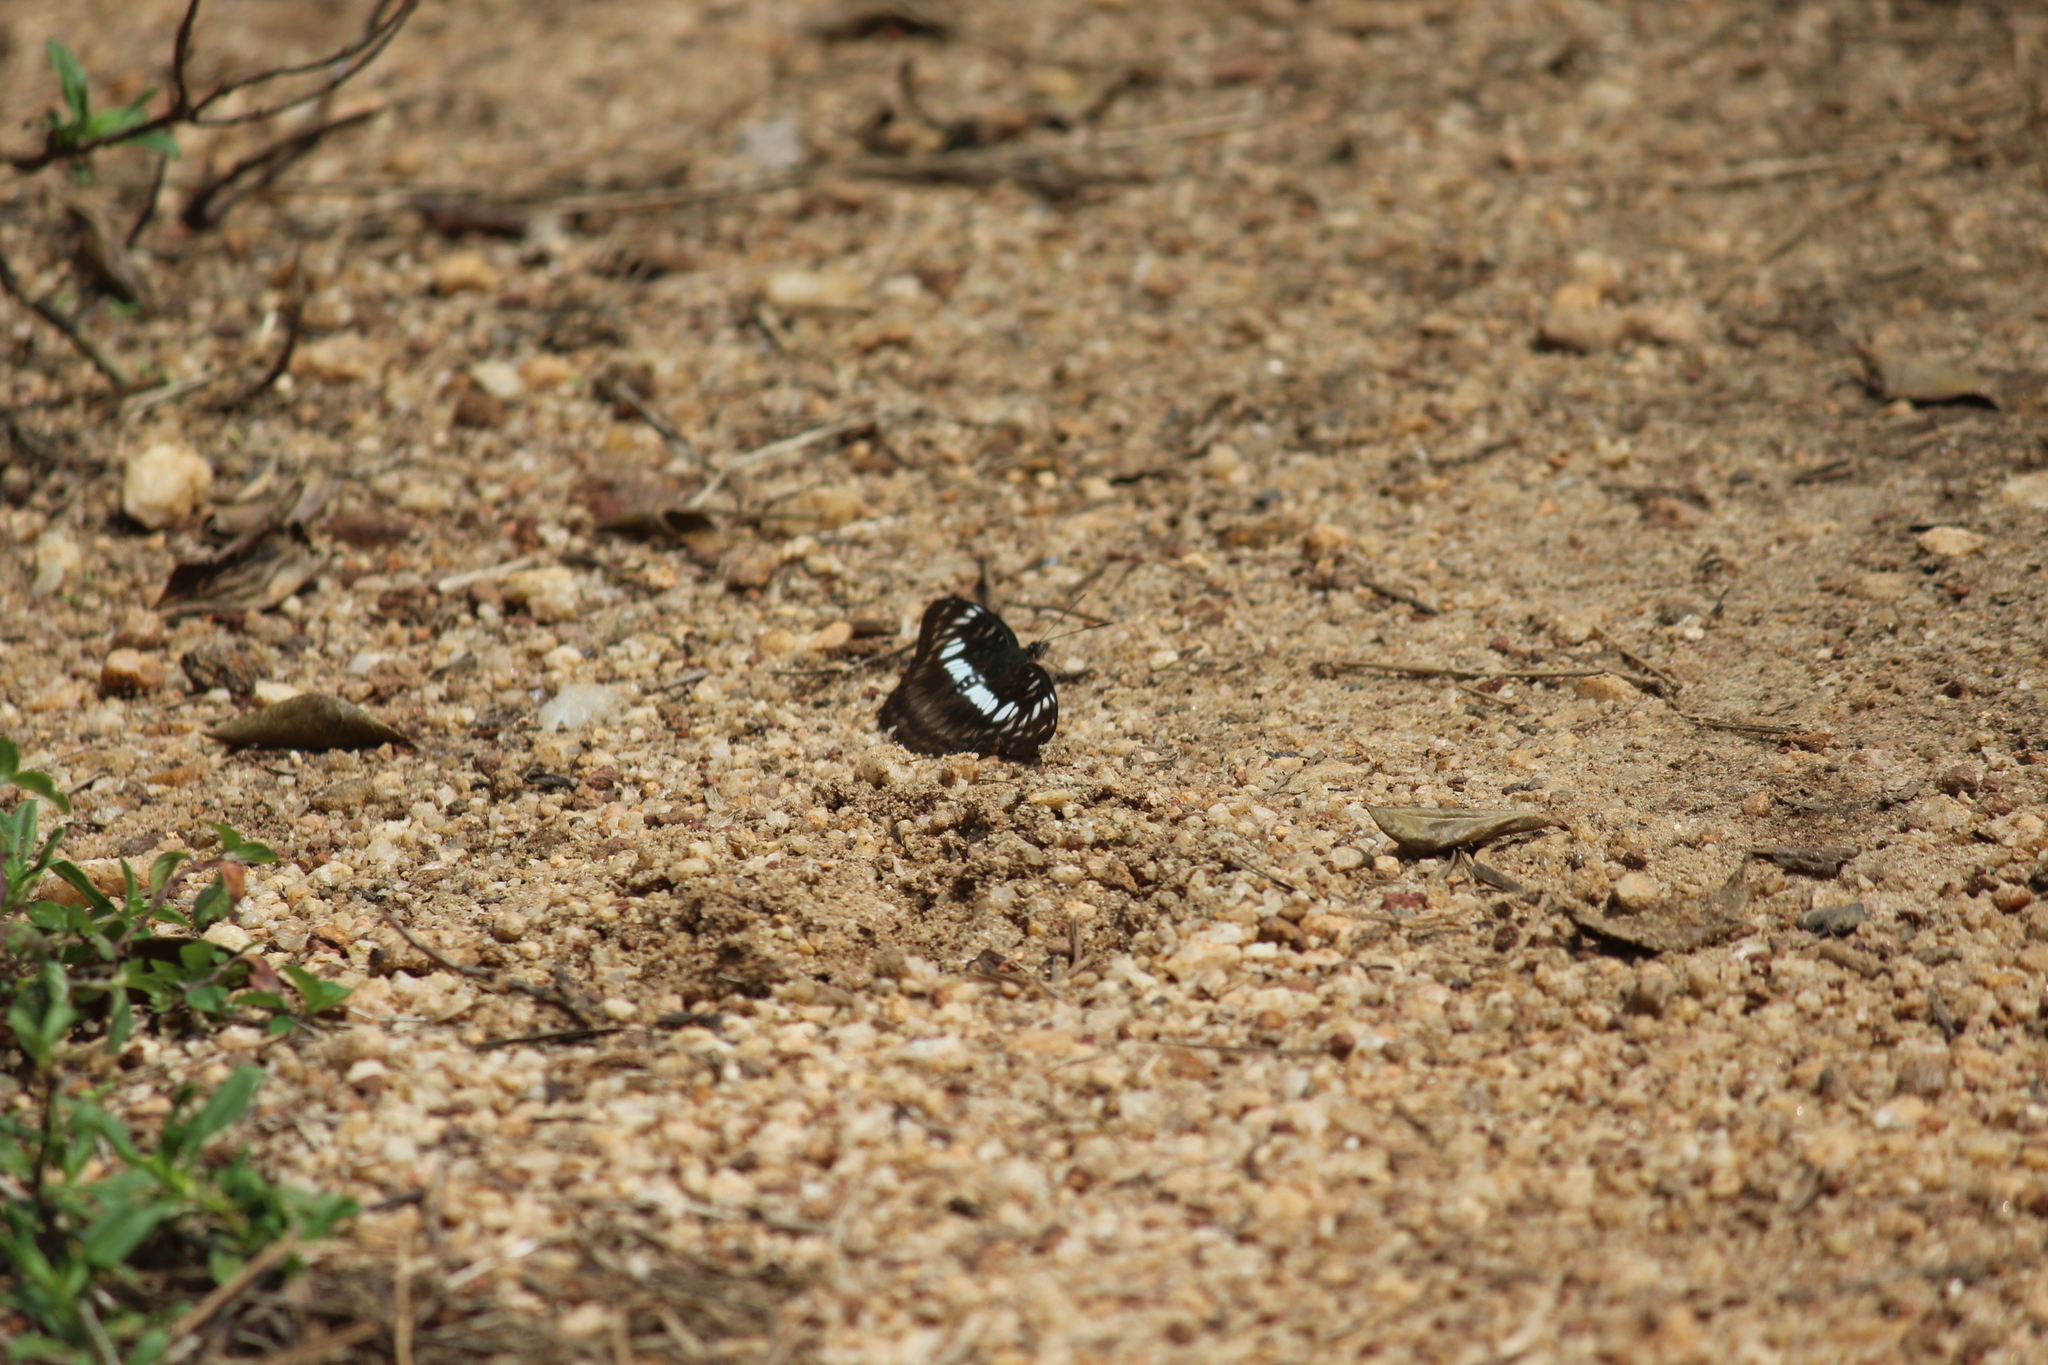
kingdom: Animalia
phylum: Arthropoda
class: Insecta
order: Lepidoptera
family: Nymphalidae
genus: Parathyma
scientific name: Parathyma ranga
